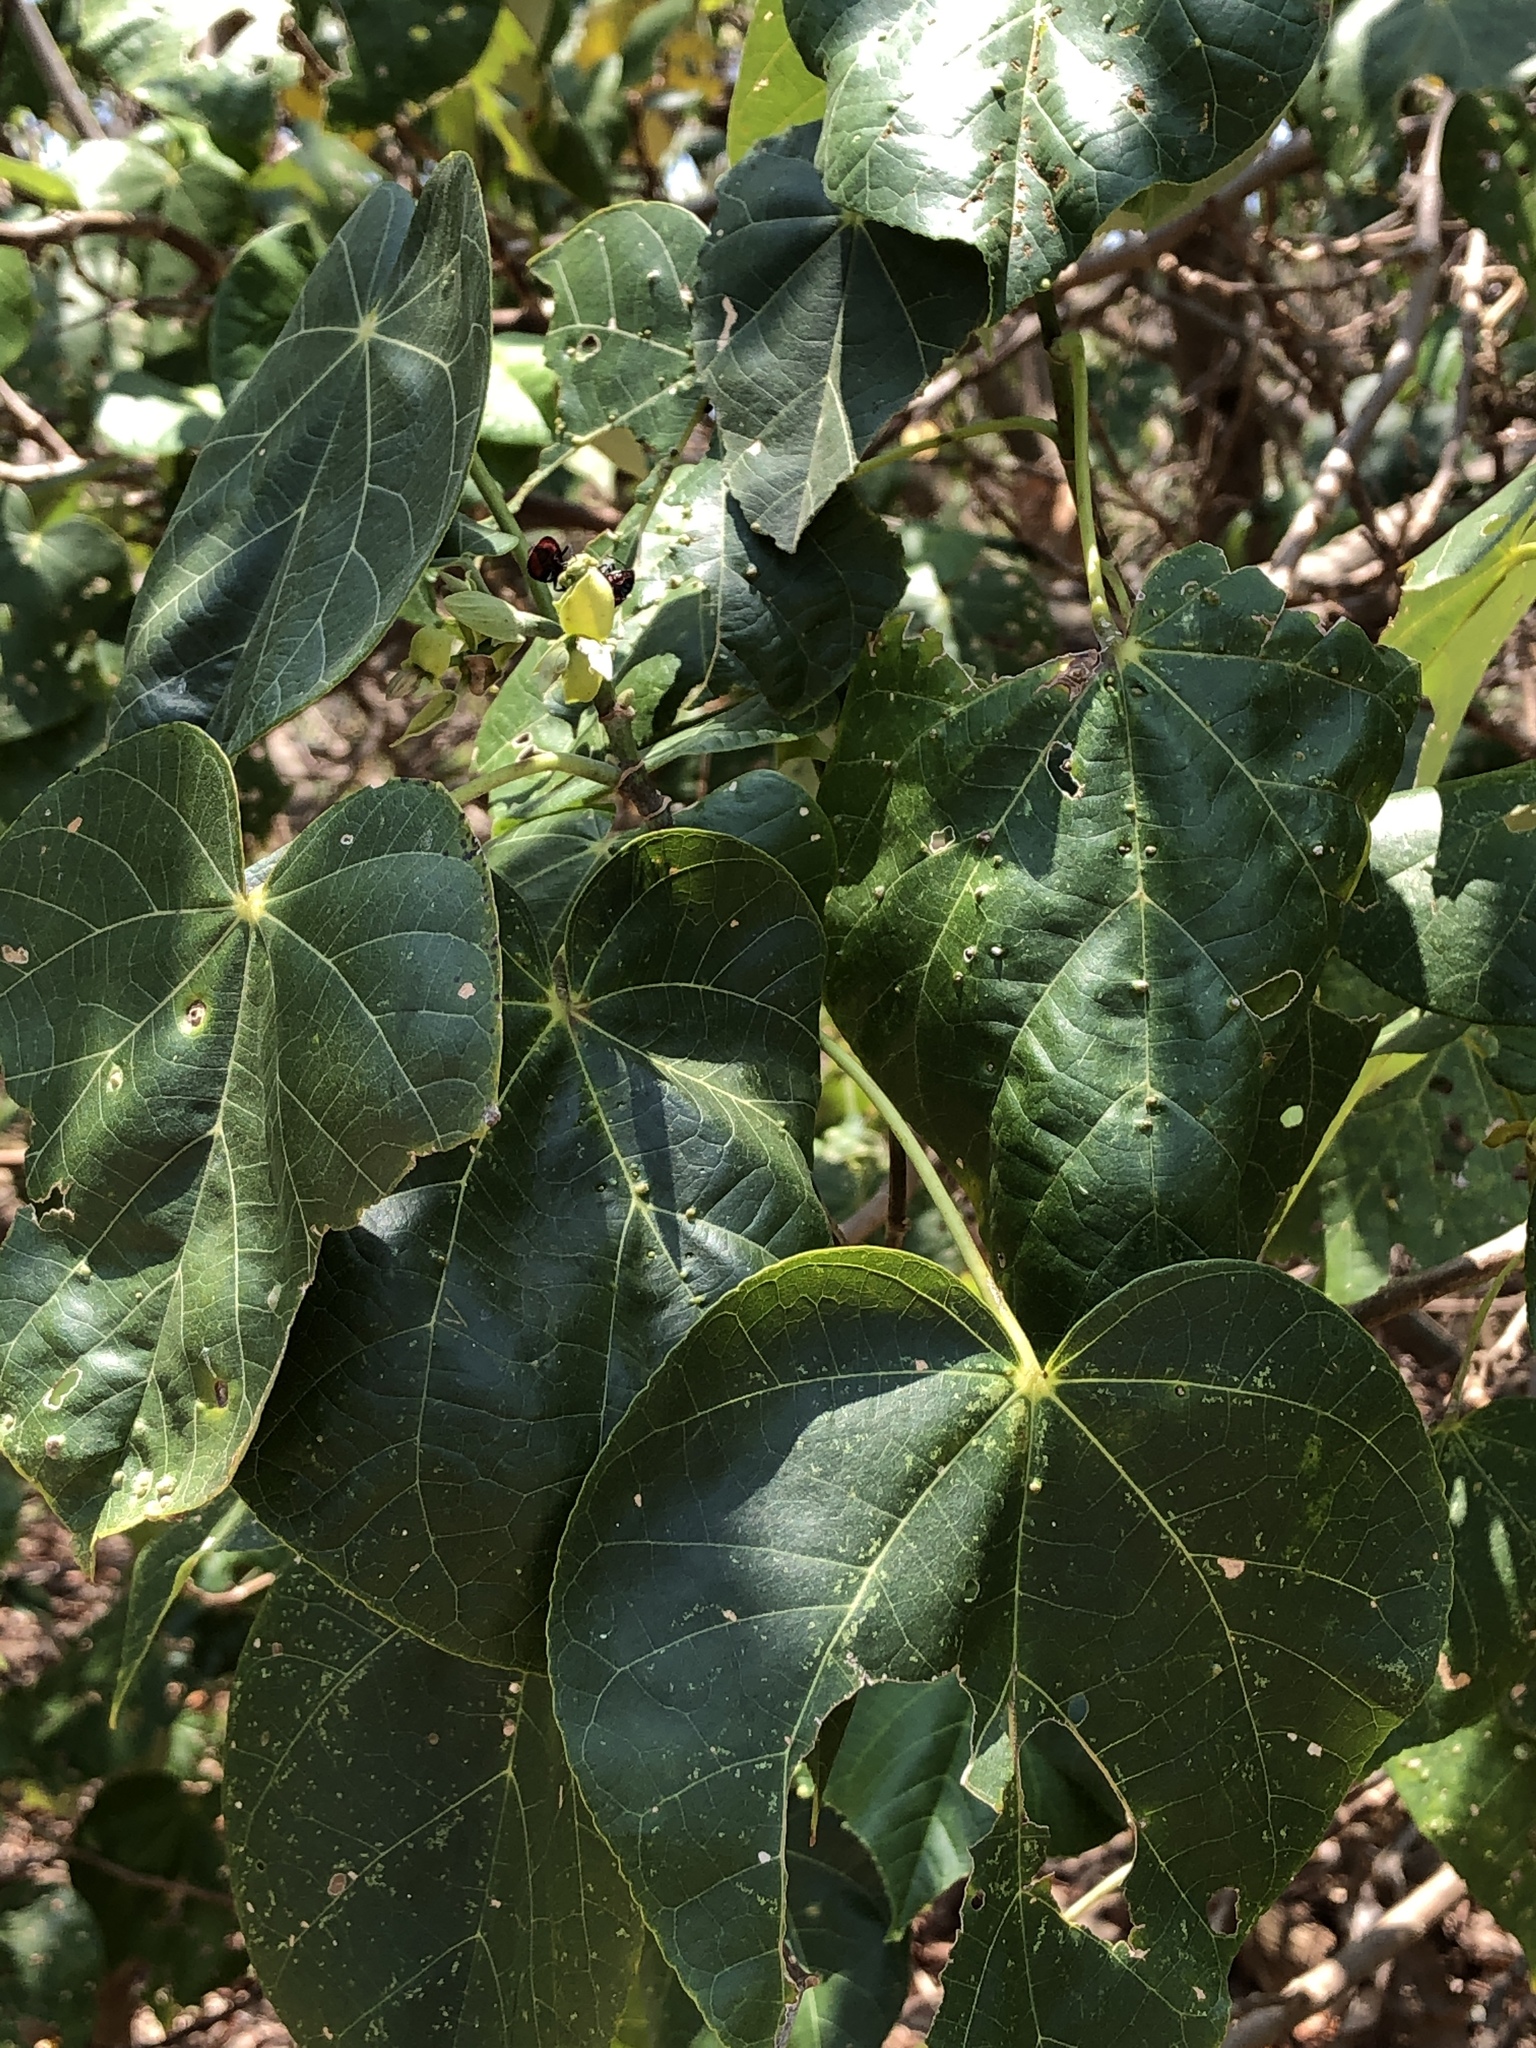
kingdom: Plantae
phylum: Tracheophyta
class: Magnoliopsida
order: Malvales
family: Malvaceae
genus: Talipariti
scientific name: Talipariti tiliaceum
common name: Sea hibiscus
